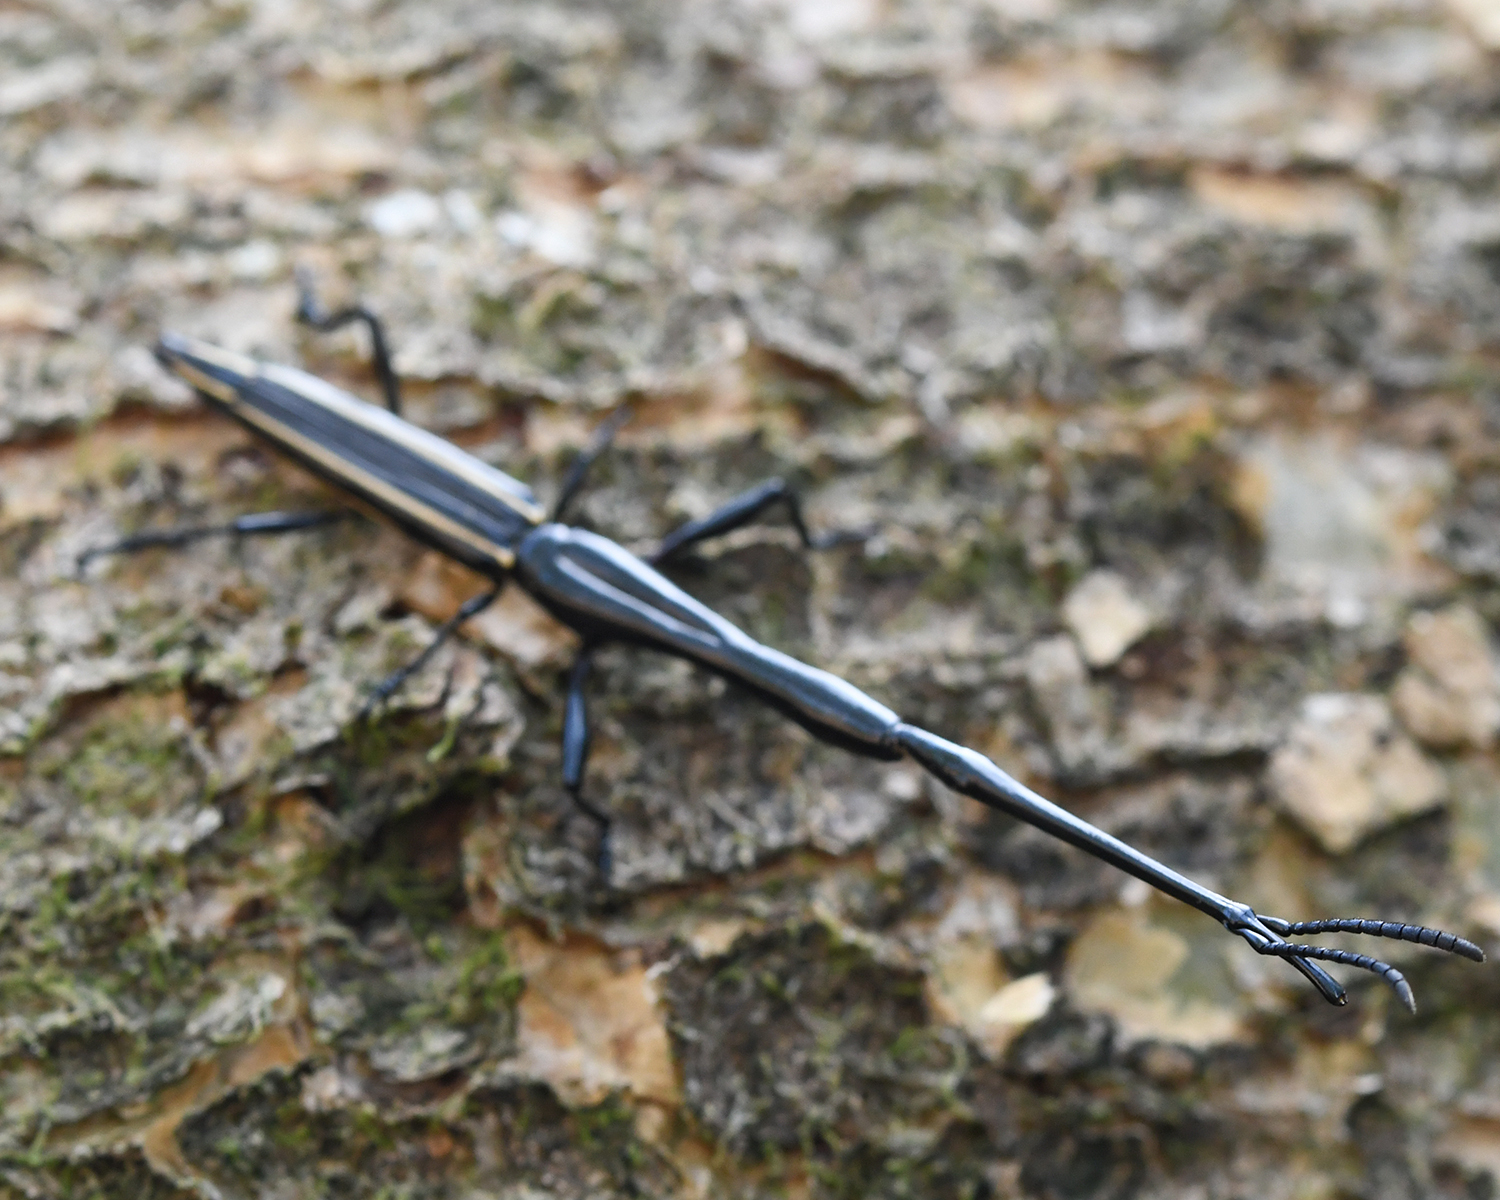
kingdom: Animalia
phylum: Arthropoda
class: Insecta
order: Coleoptera
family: Brentidae
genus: Brentus
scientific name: Brentus anchorago
